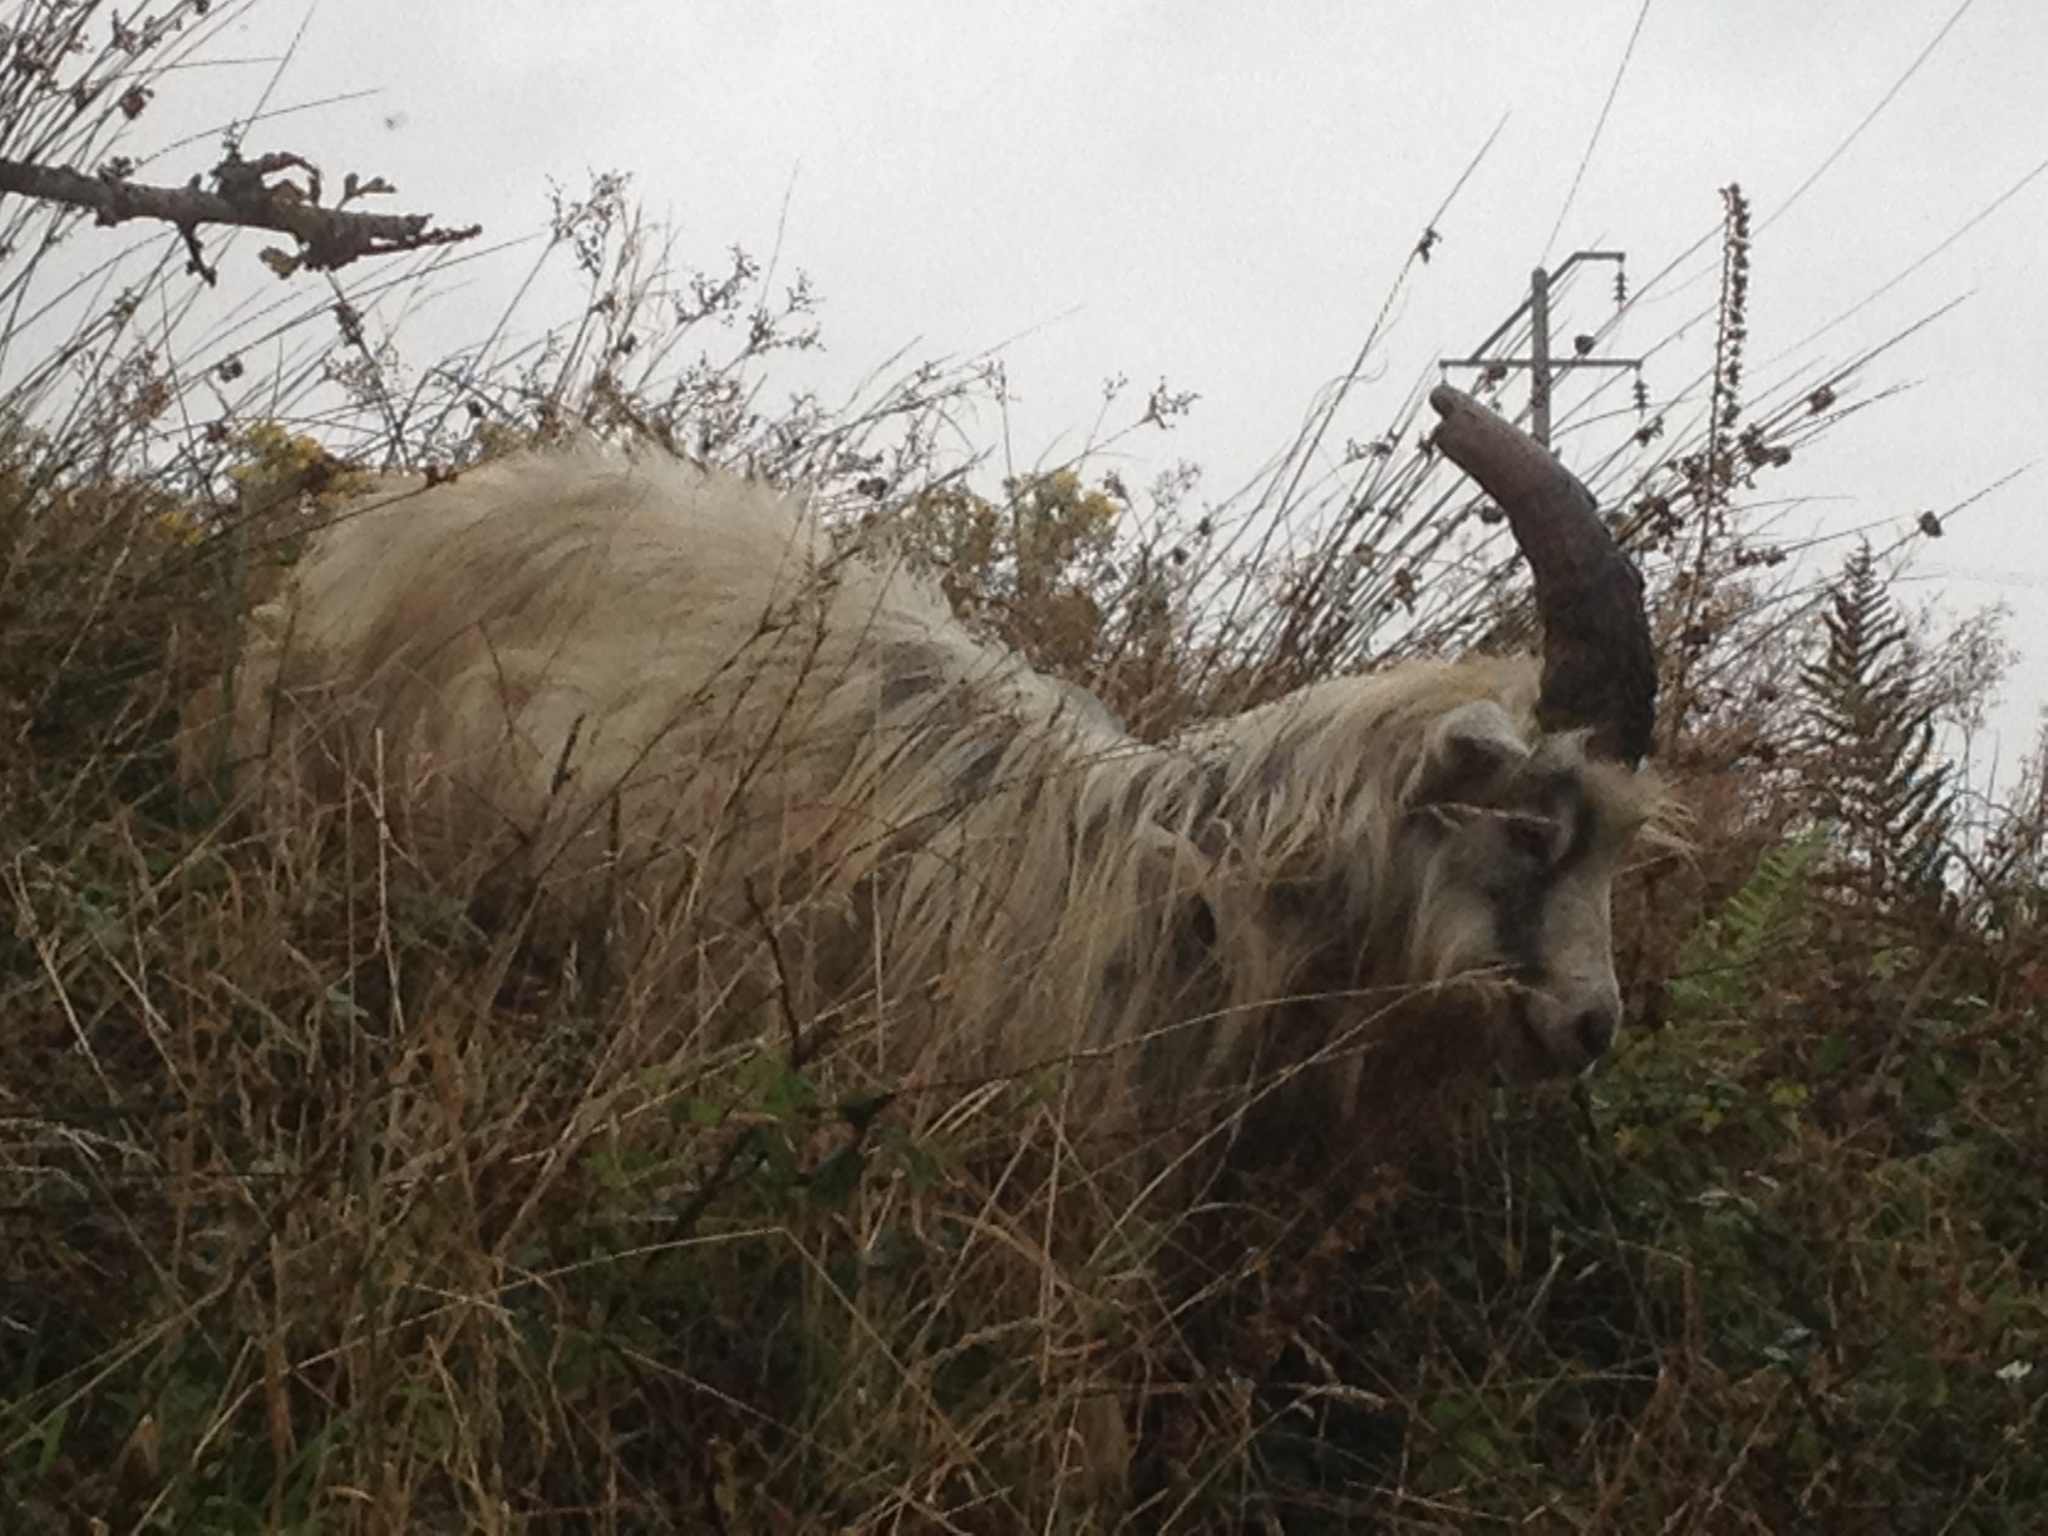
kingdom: Animalia
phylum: Chordata
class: Mammalia
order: Artiodactyla
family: Bovidae
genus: Capra
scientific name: Capra hircus
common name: Domestic goat
